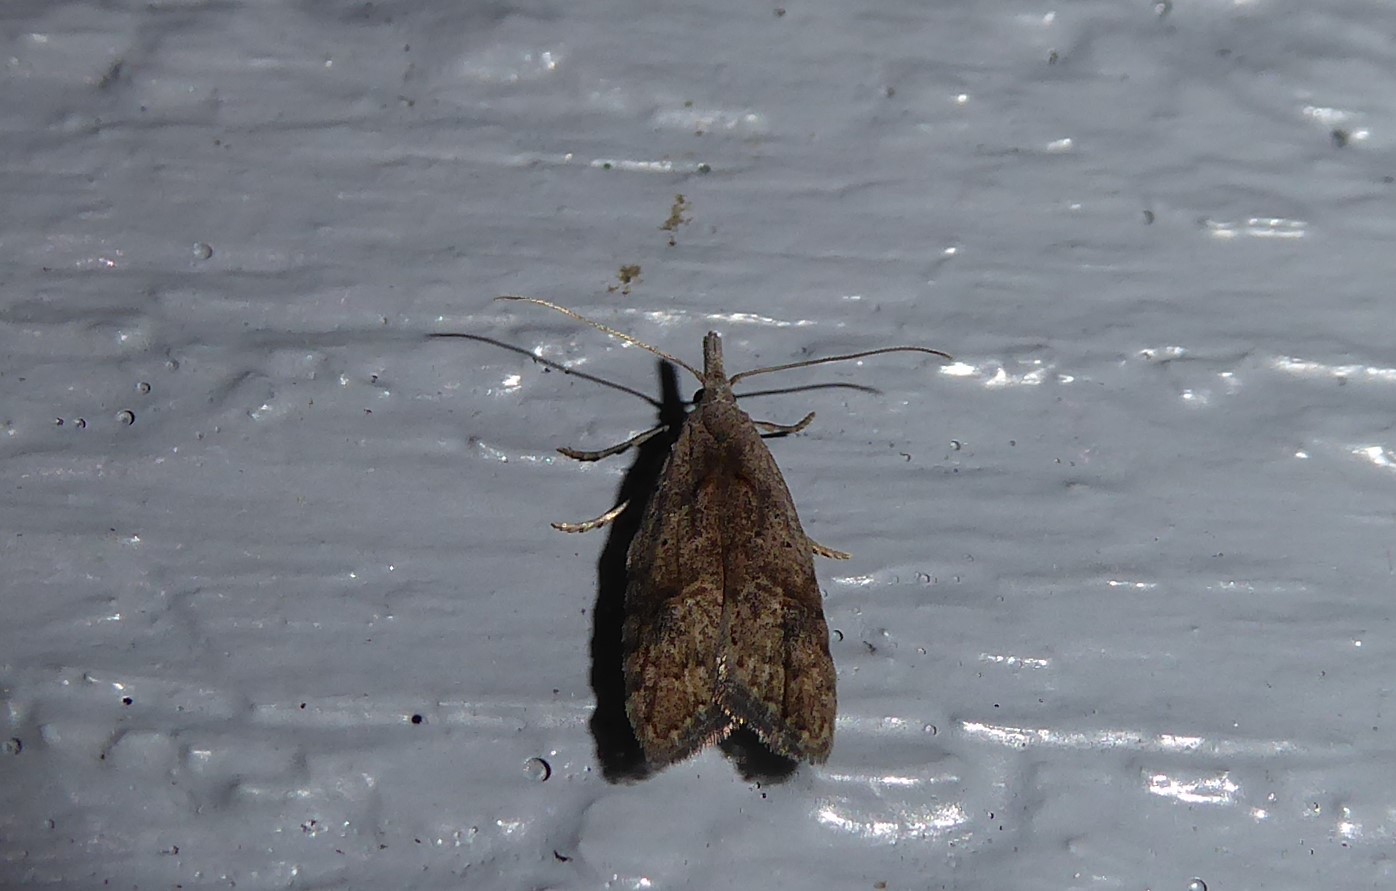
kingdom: Animalia
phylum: Arthropoda
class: Insecta
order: Lepidoptera
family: Carposinidae
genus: Carposina
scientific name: Carposina rubophaga
